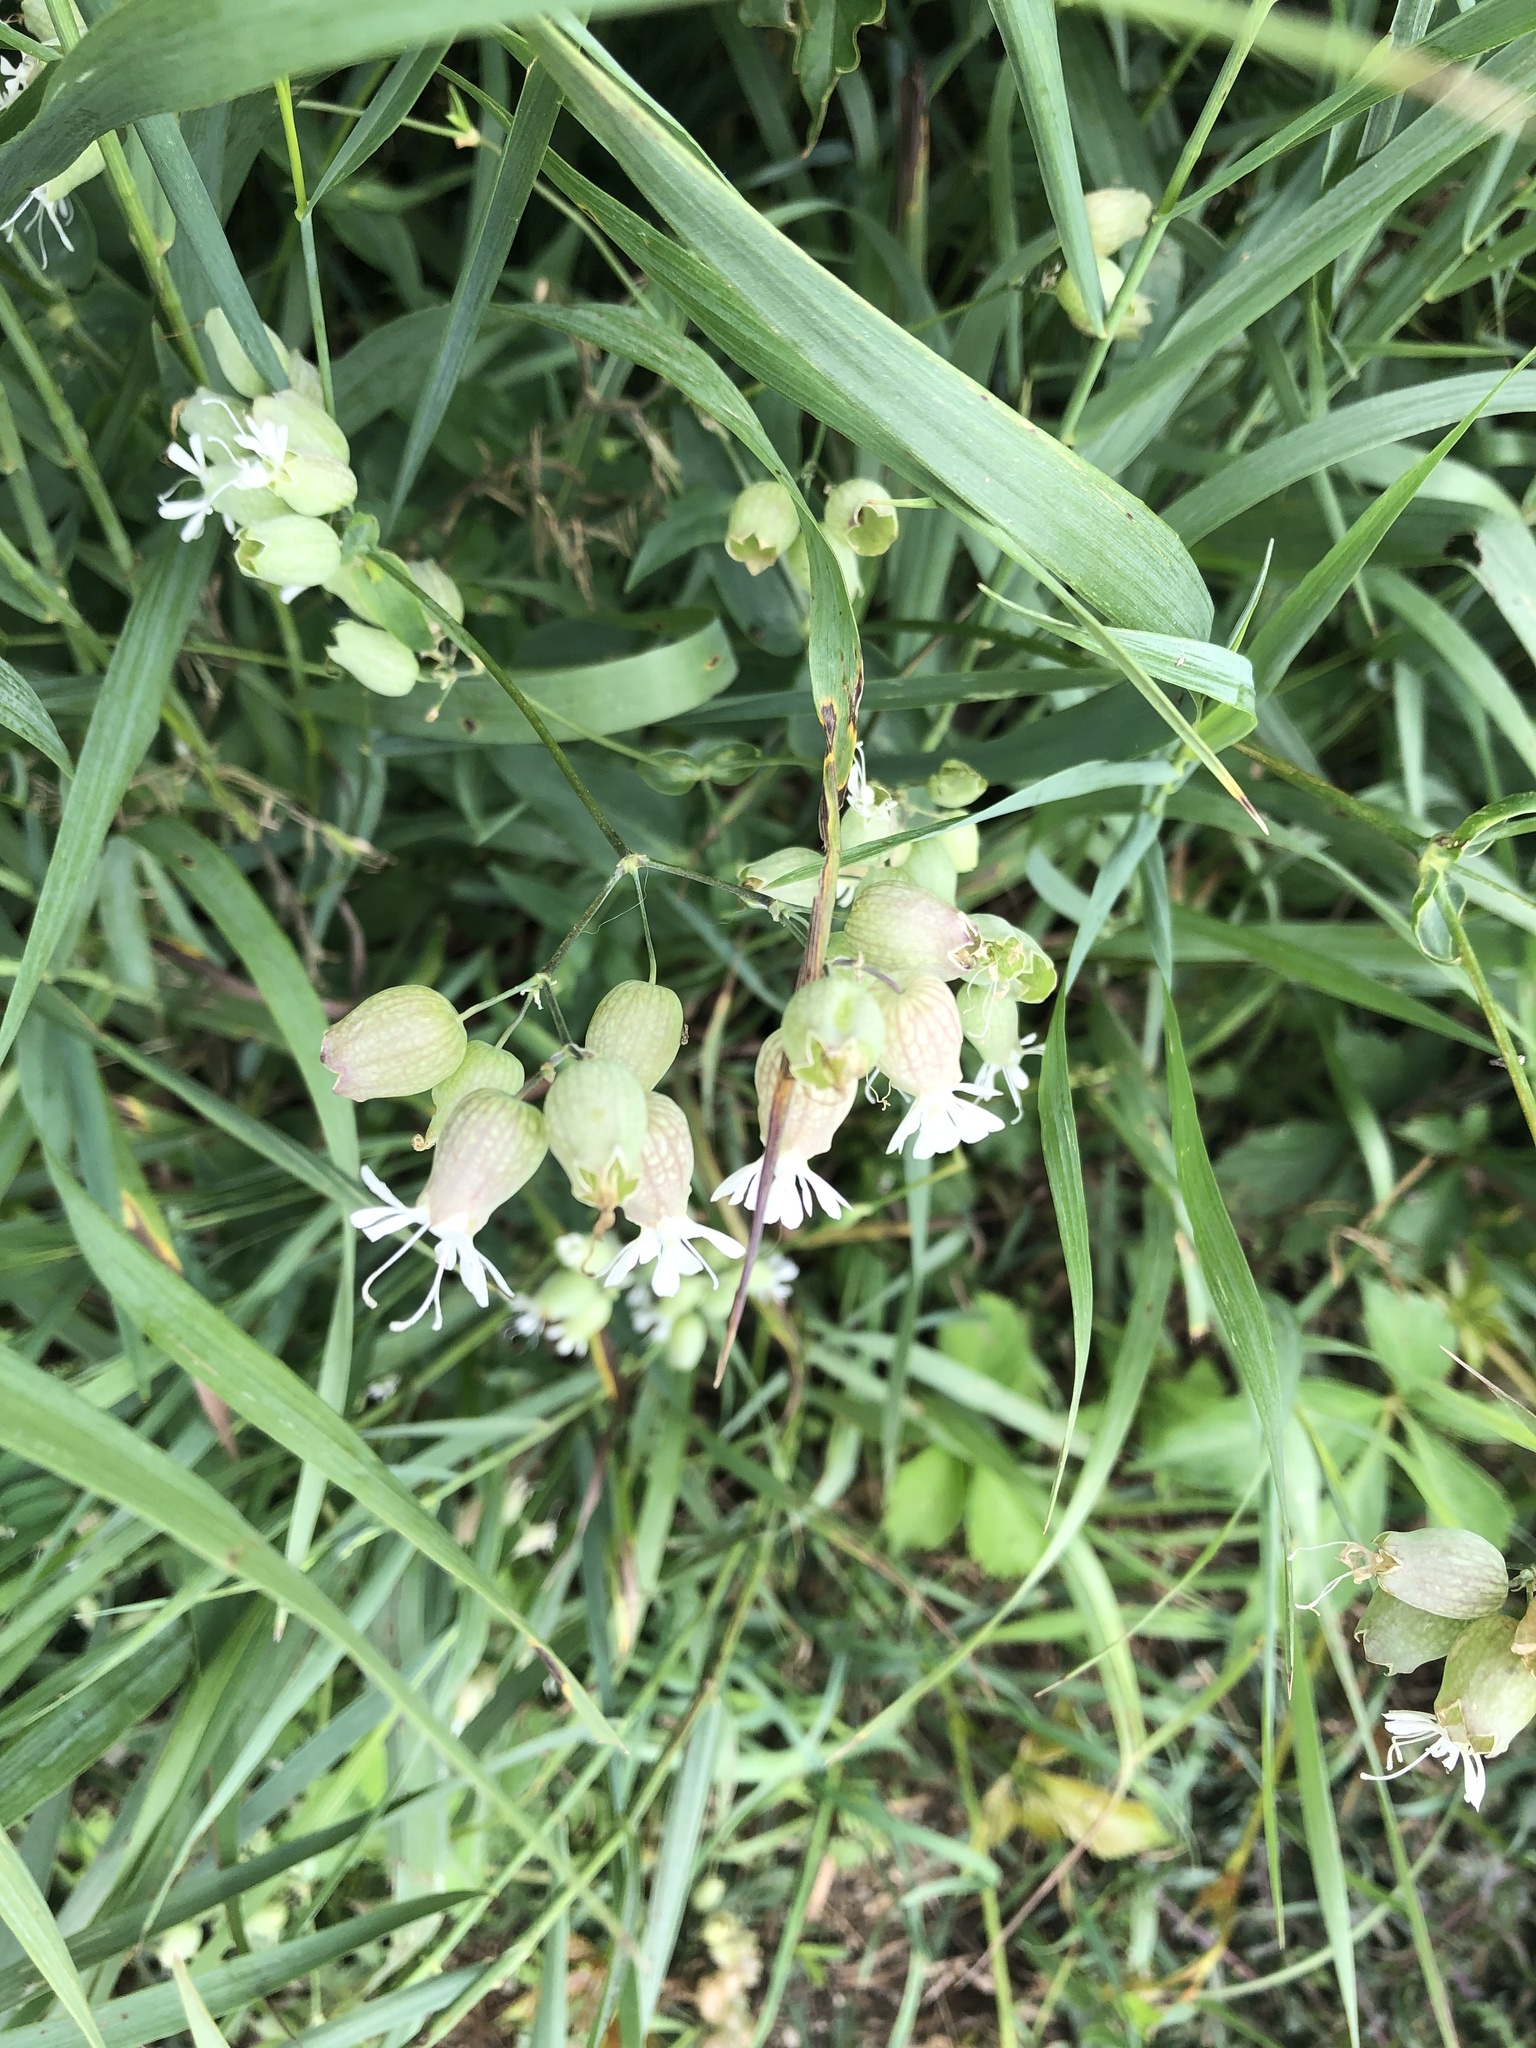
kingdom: Plantae
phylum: Tracheophyta
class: Magnoliopsida
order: Caryophyllales
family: Caryophyllaceae
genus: Silene
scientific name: Silene vulgaris
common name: Bladder campion
